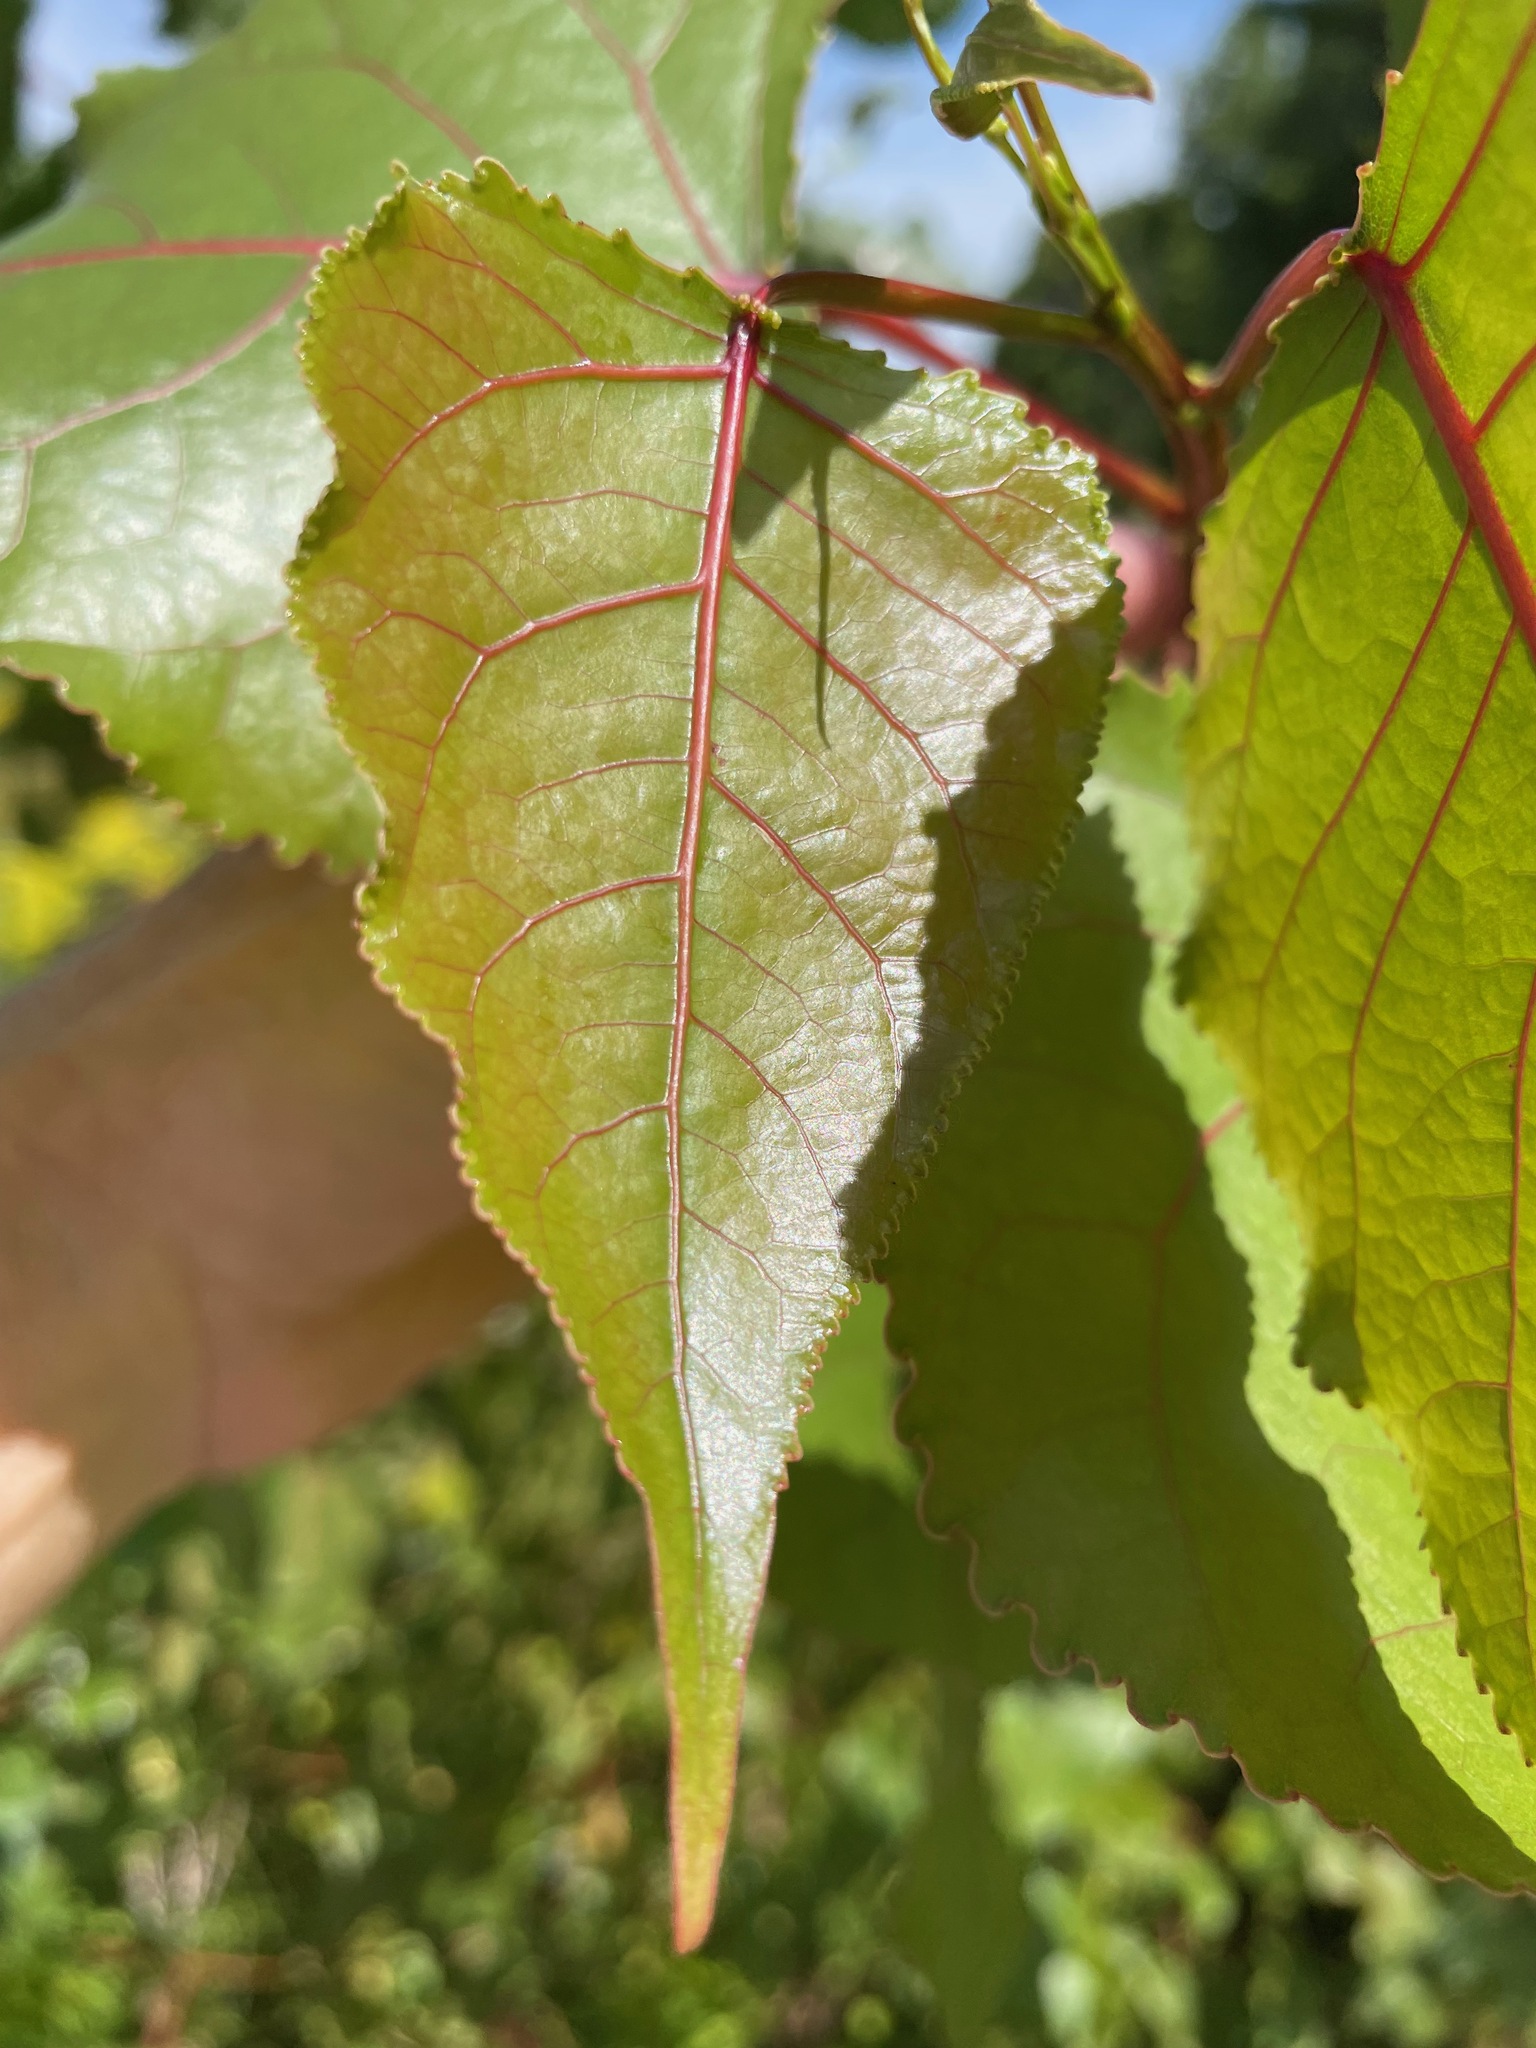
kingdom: Plantae
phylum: Tracheophyta
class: Magnoliopsida
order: Malpighiales
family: Salicaceae
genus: Populus
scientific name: Populus deltoides
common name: Eastern cottonwood
